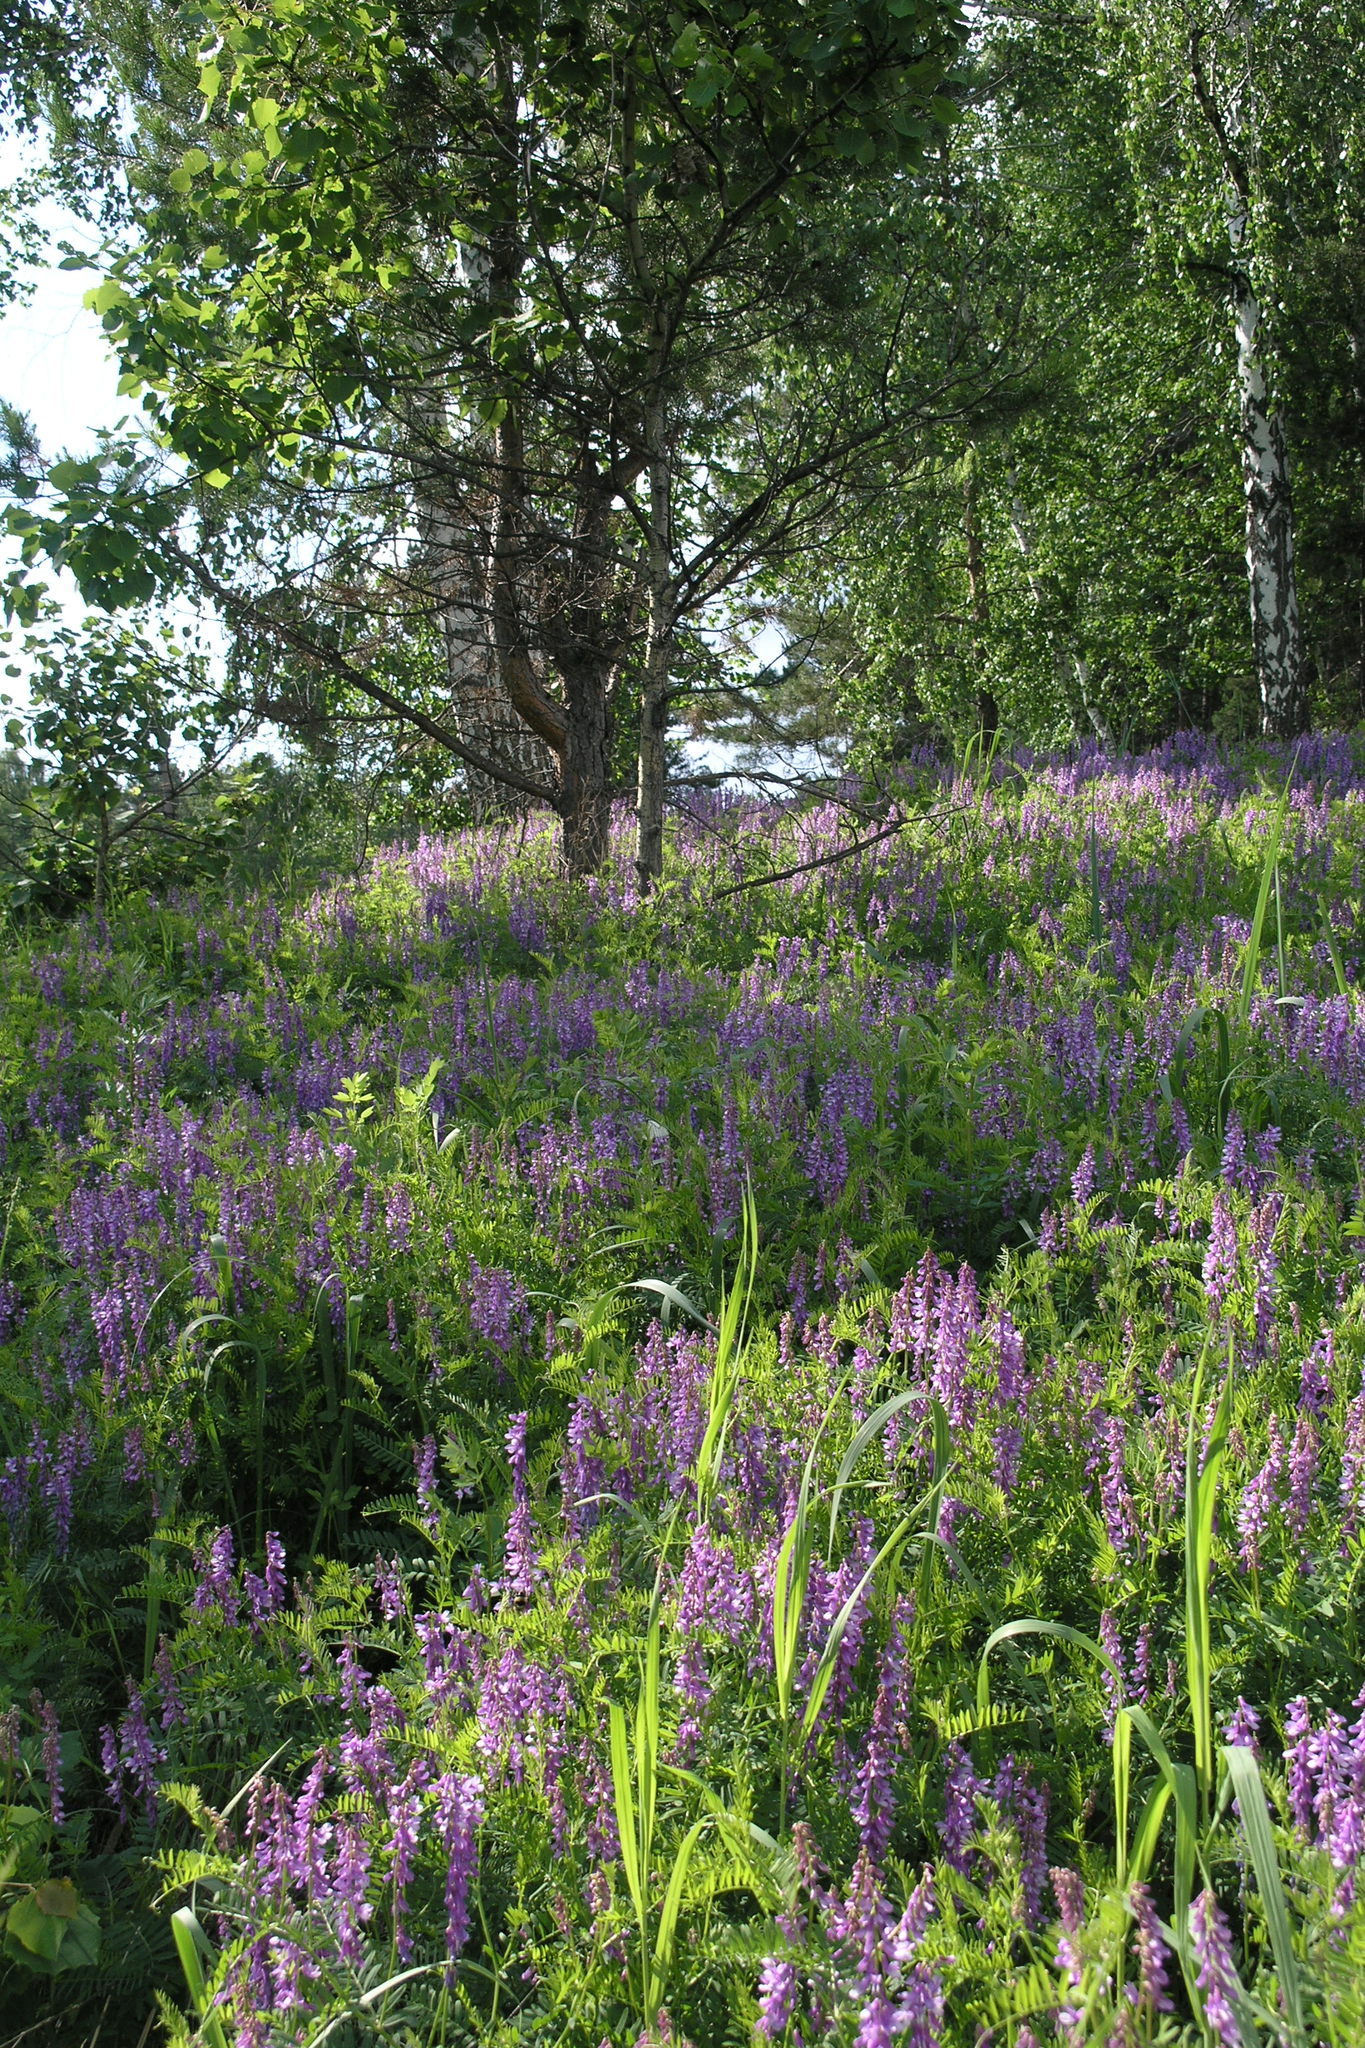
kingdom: Plantae
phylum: Tracheophyta
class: Magnoliopsida
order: Fabales
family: Fabaceae
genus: Vicia
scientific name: Vicia tenuifolia
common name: Fine-leaved vetch
